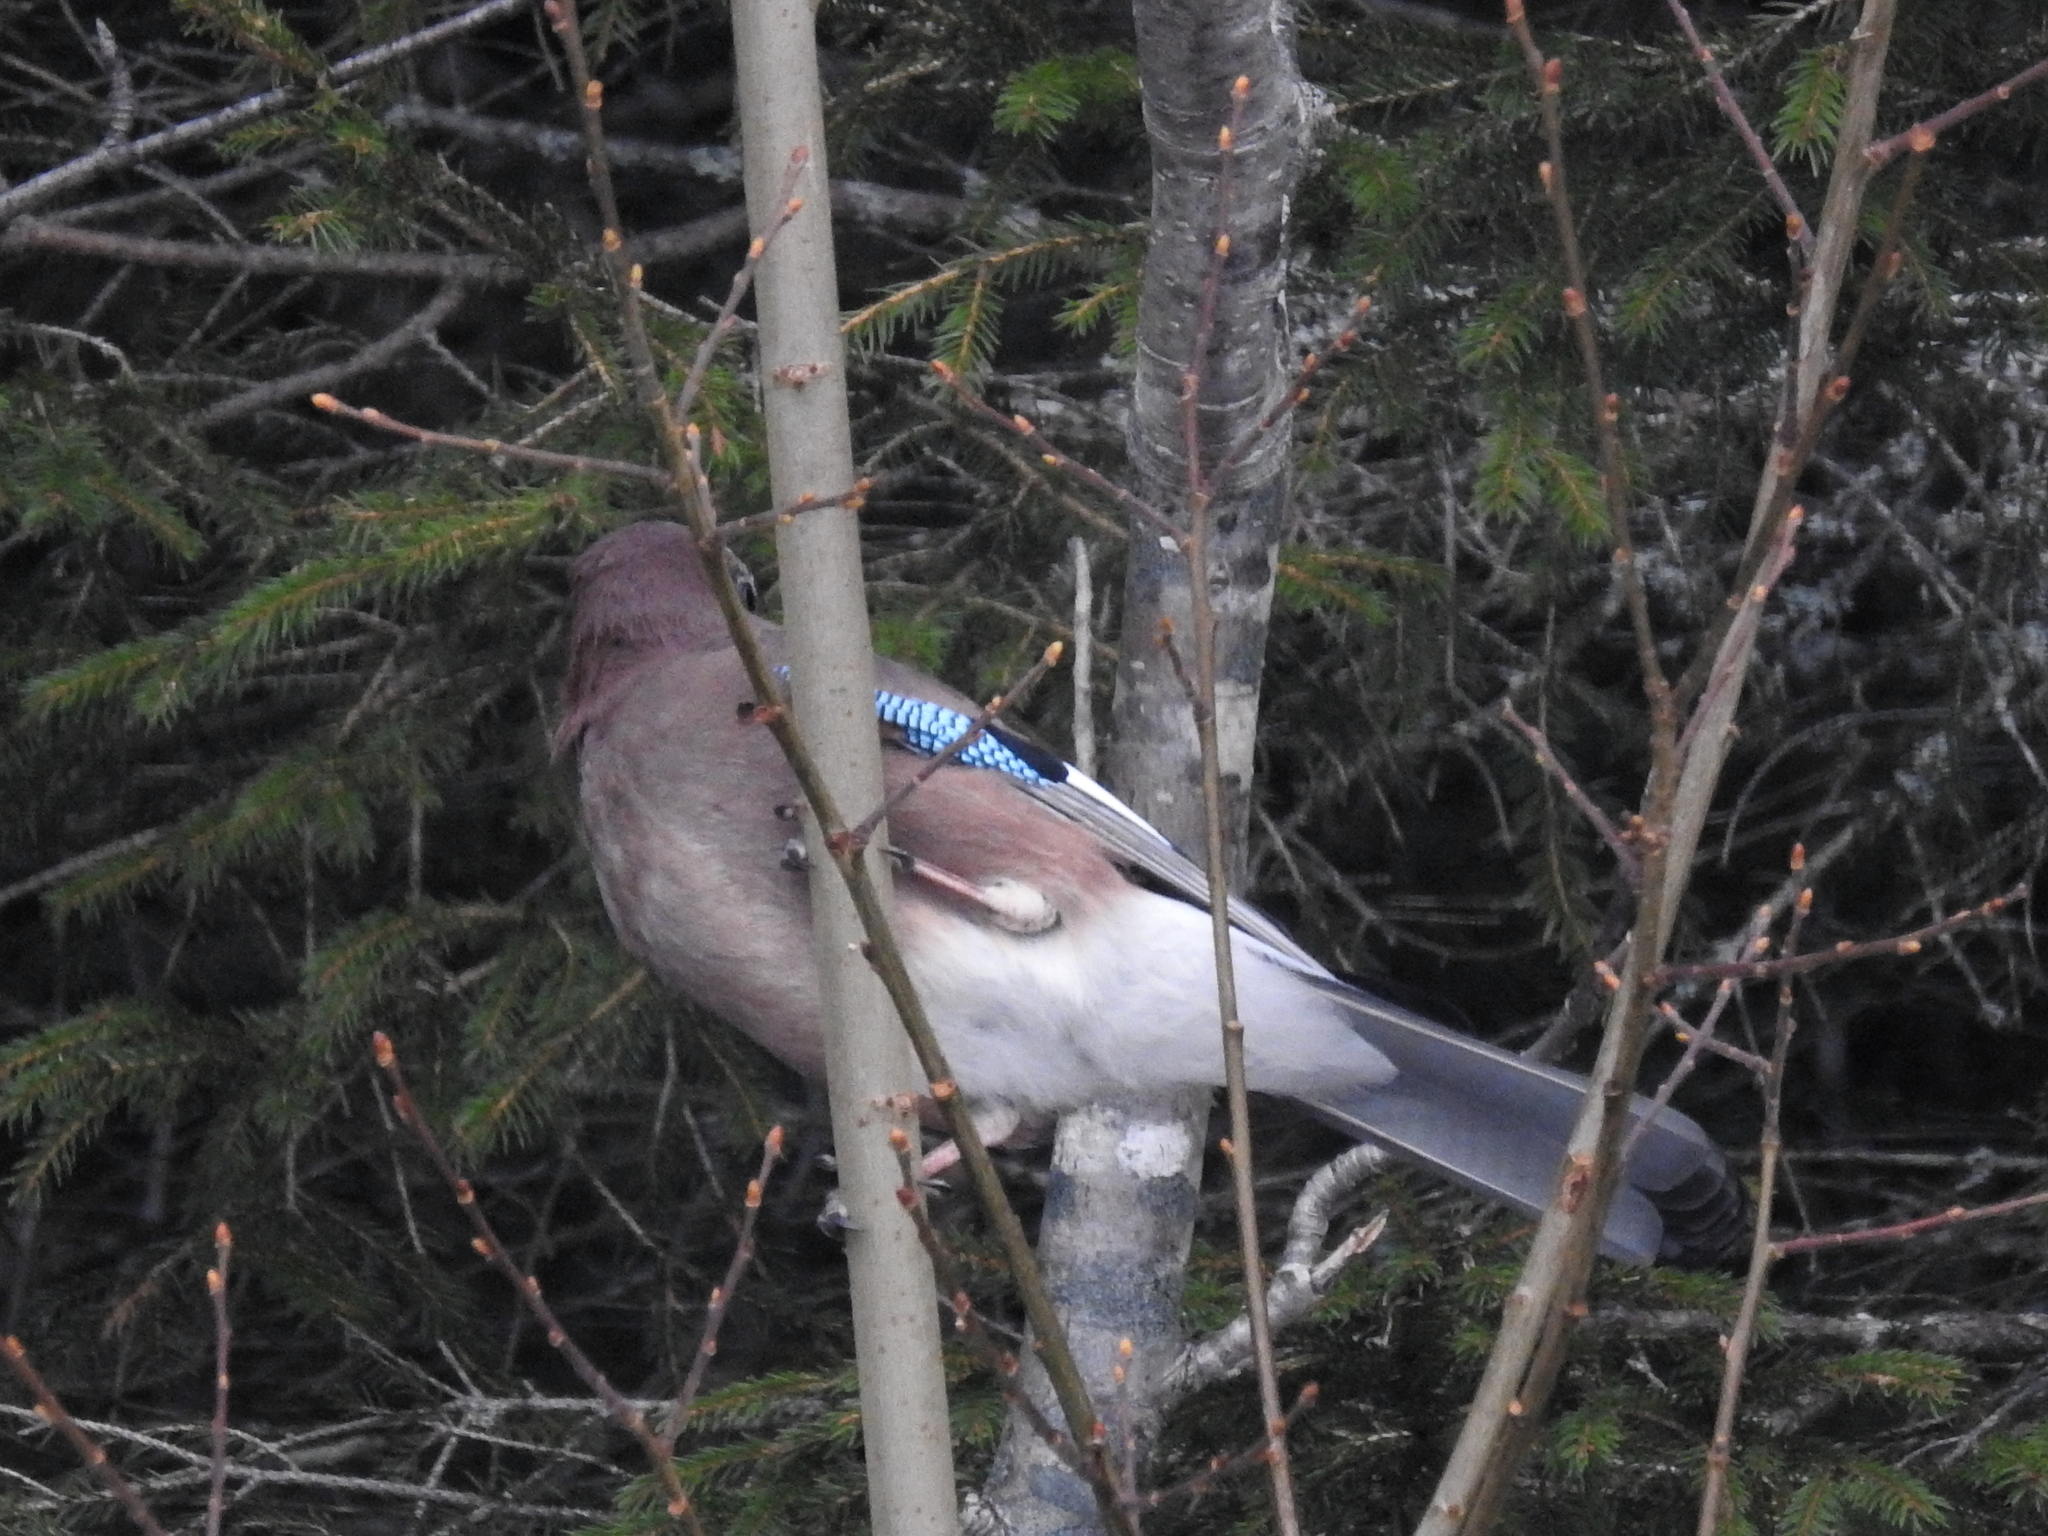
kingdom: Animalia
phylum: Chordata
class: Aves
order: Passeriformes
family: Corvidae
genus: Garrulus
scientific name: Garrulus glandarius
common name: Eurasian jay
